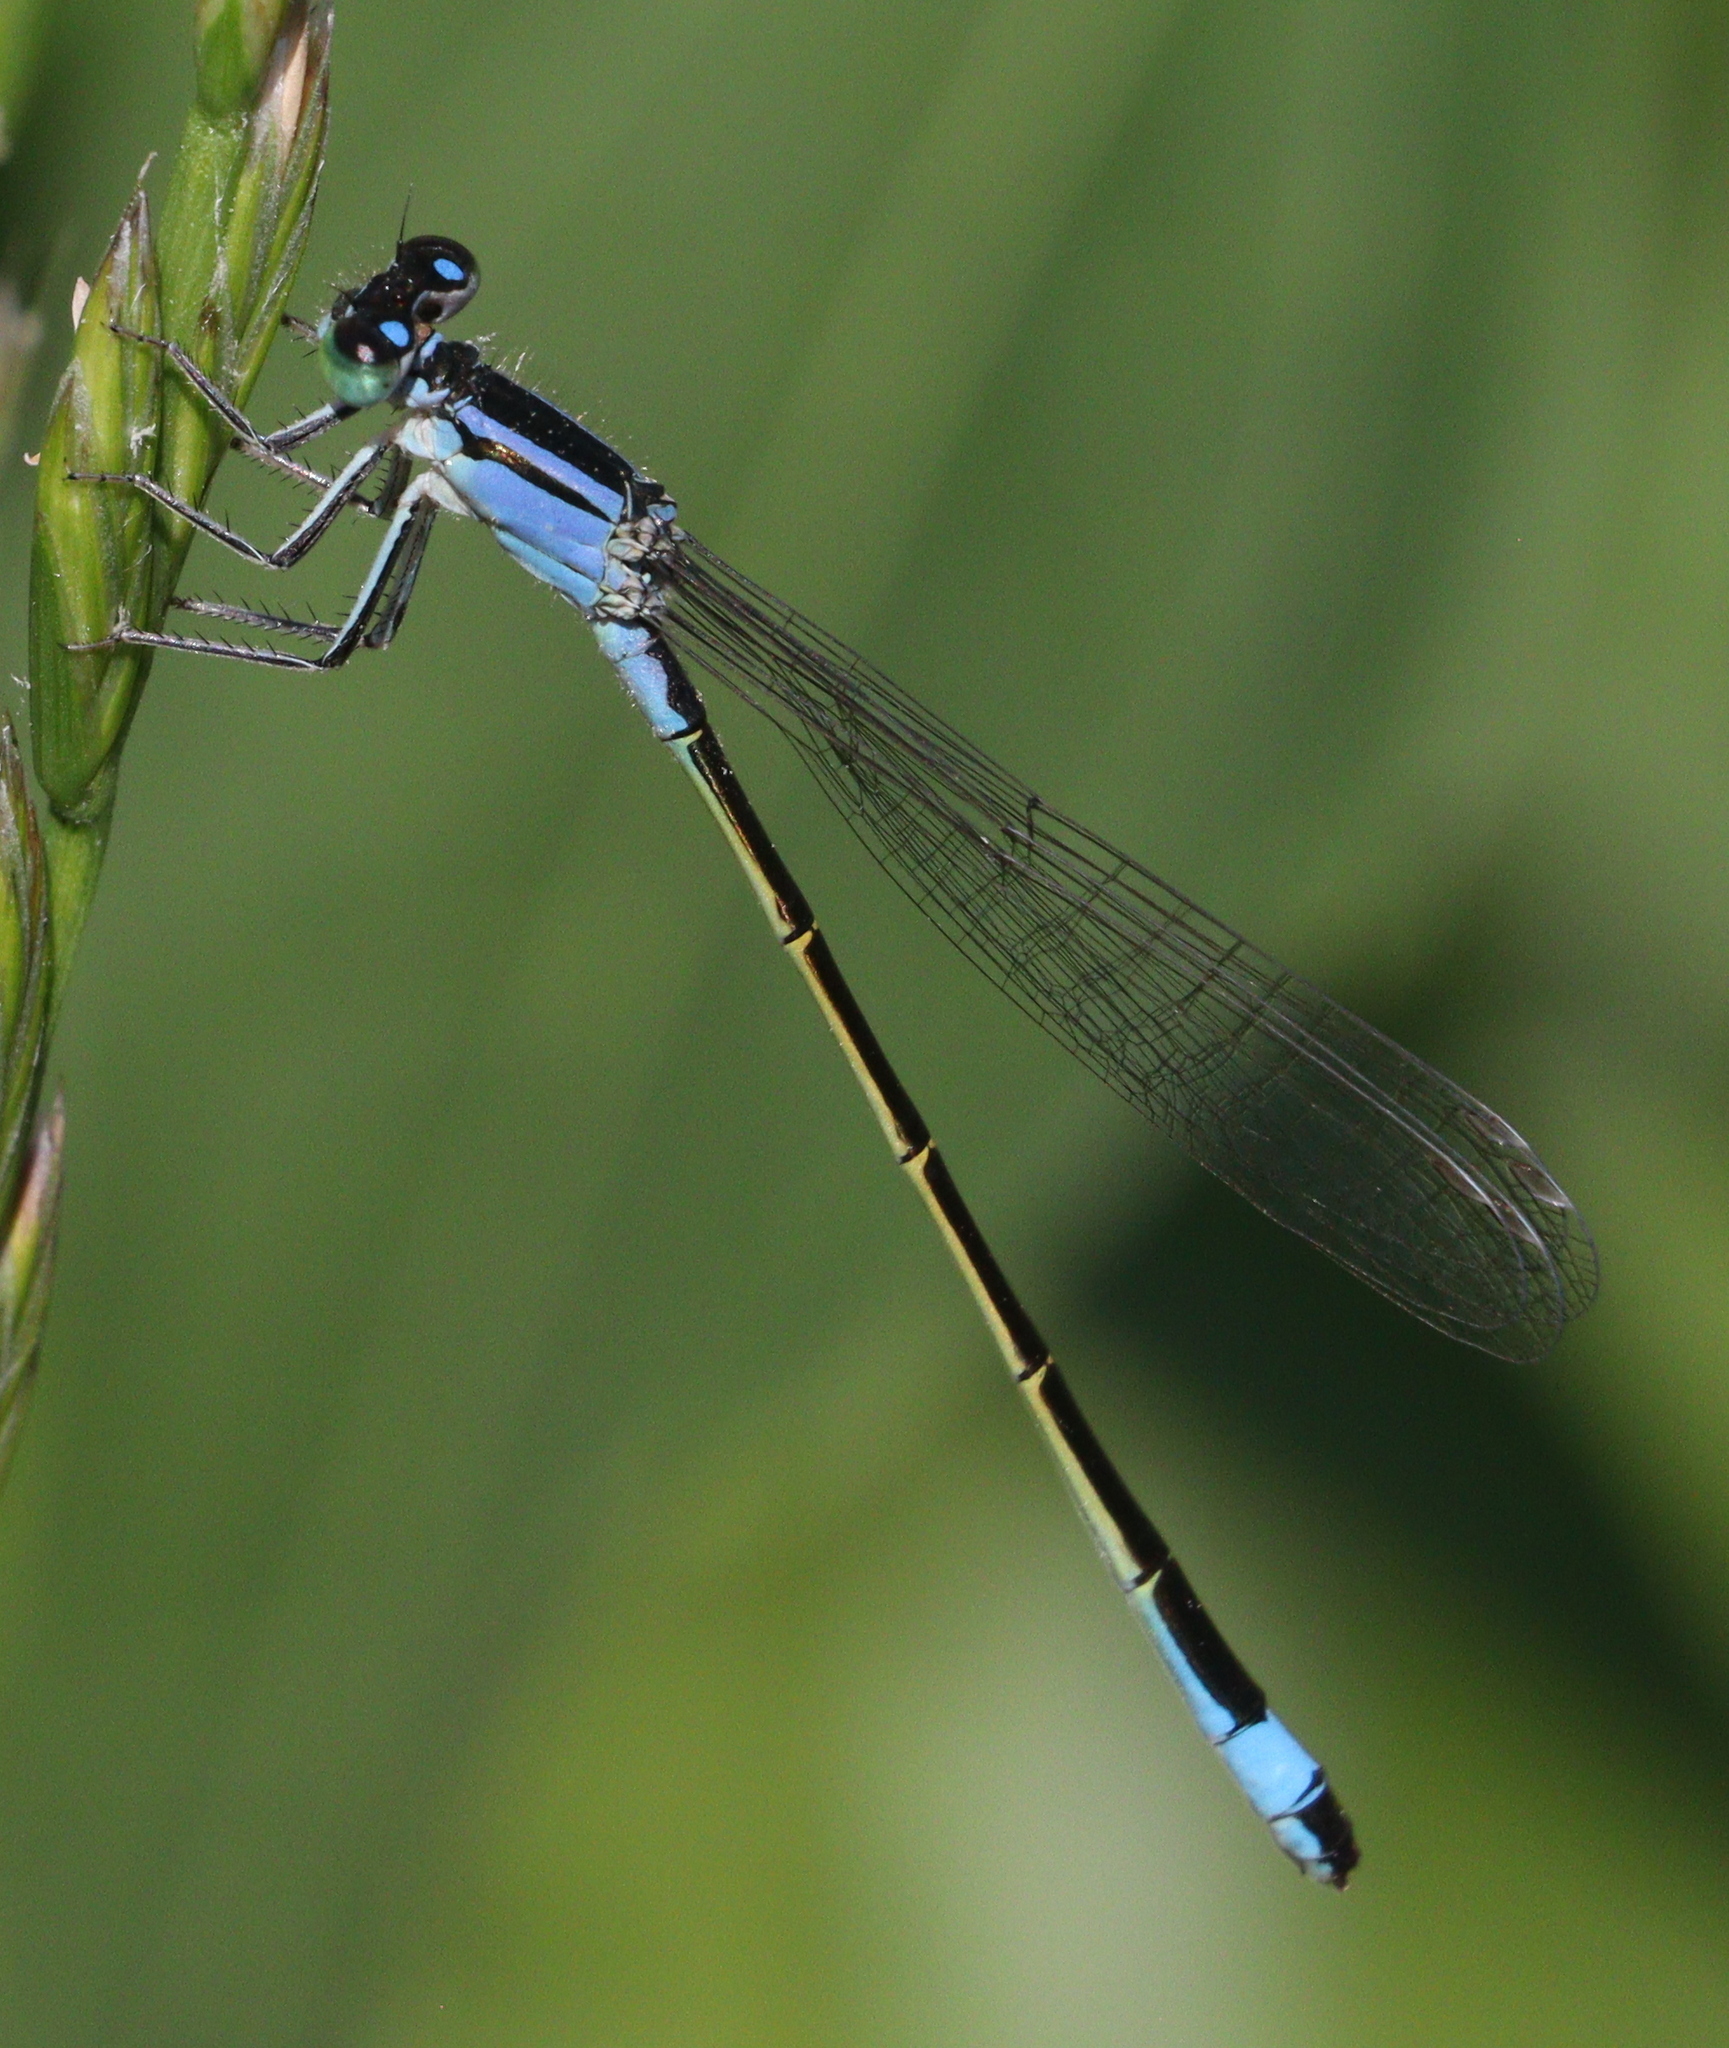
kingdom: Animalia
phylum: Arthropoda
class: Insecta
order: Odonata
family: Coenagrionidae
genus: Ischnura
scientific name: Ischnura elegans
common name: Blue-tailed damselfly
